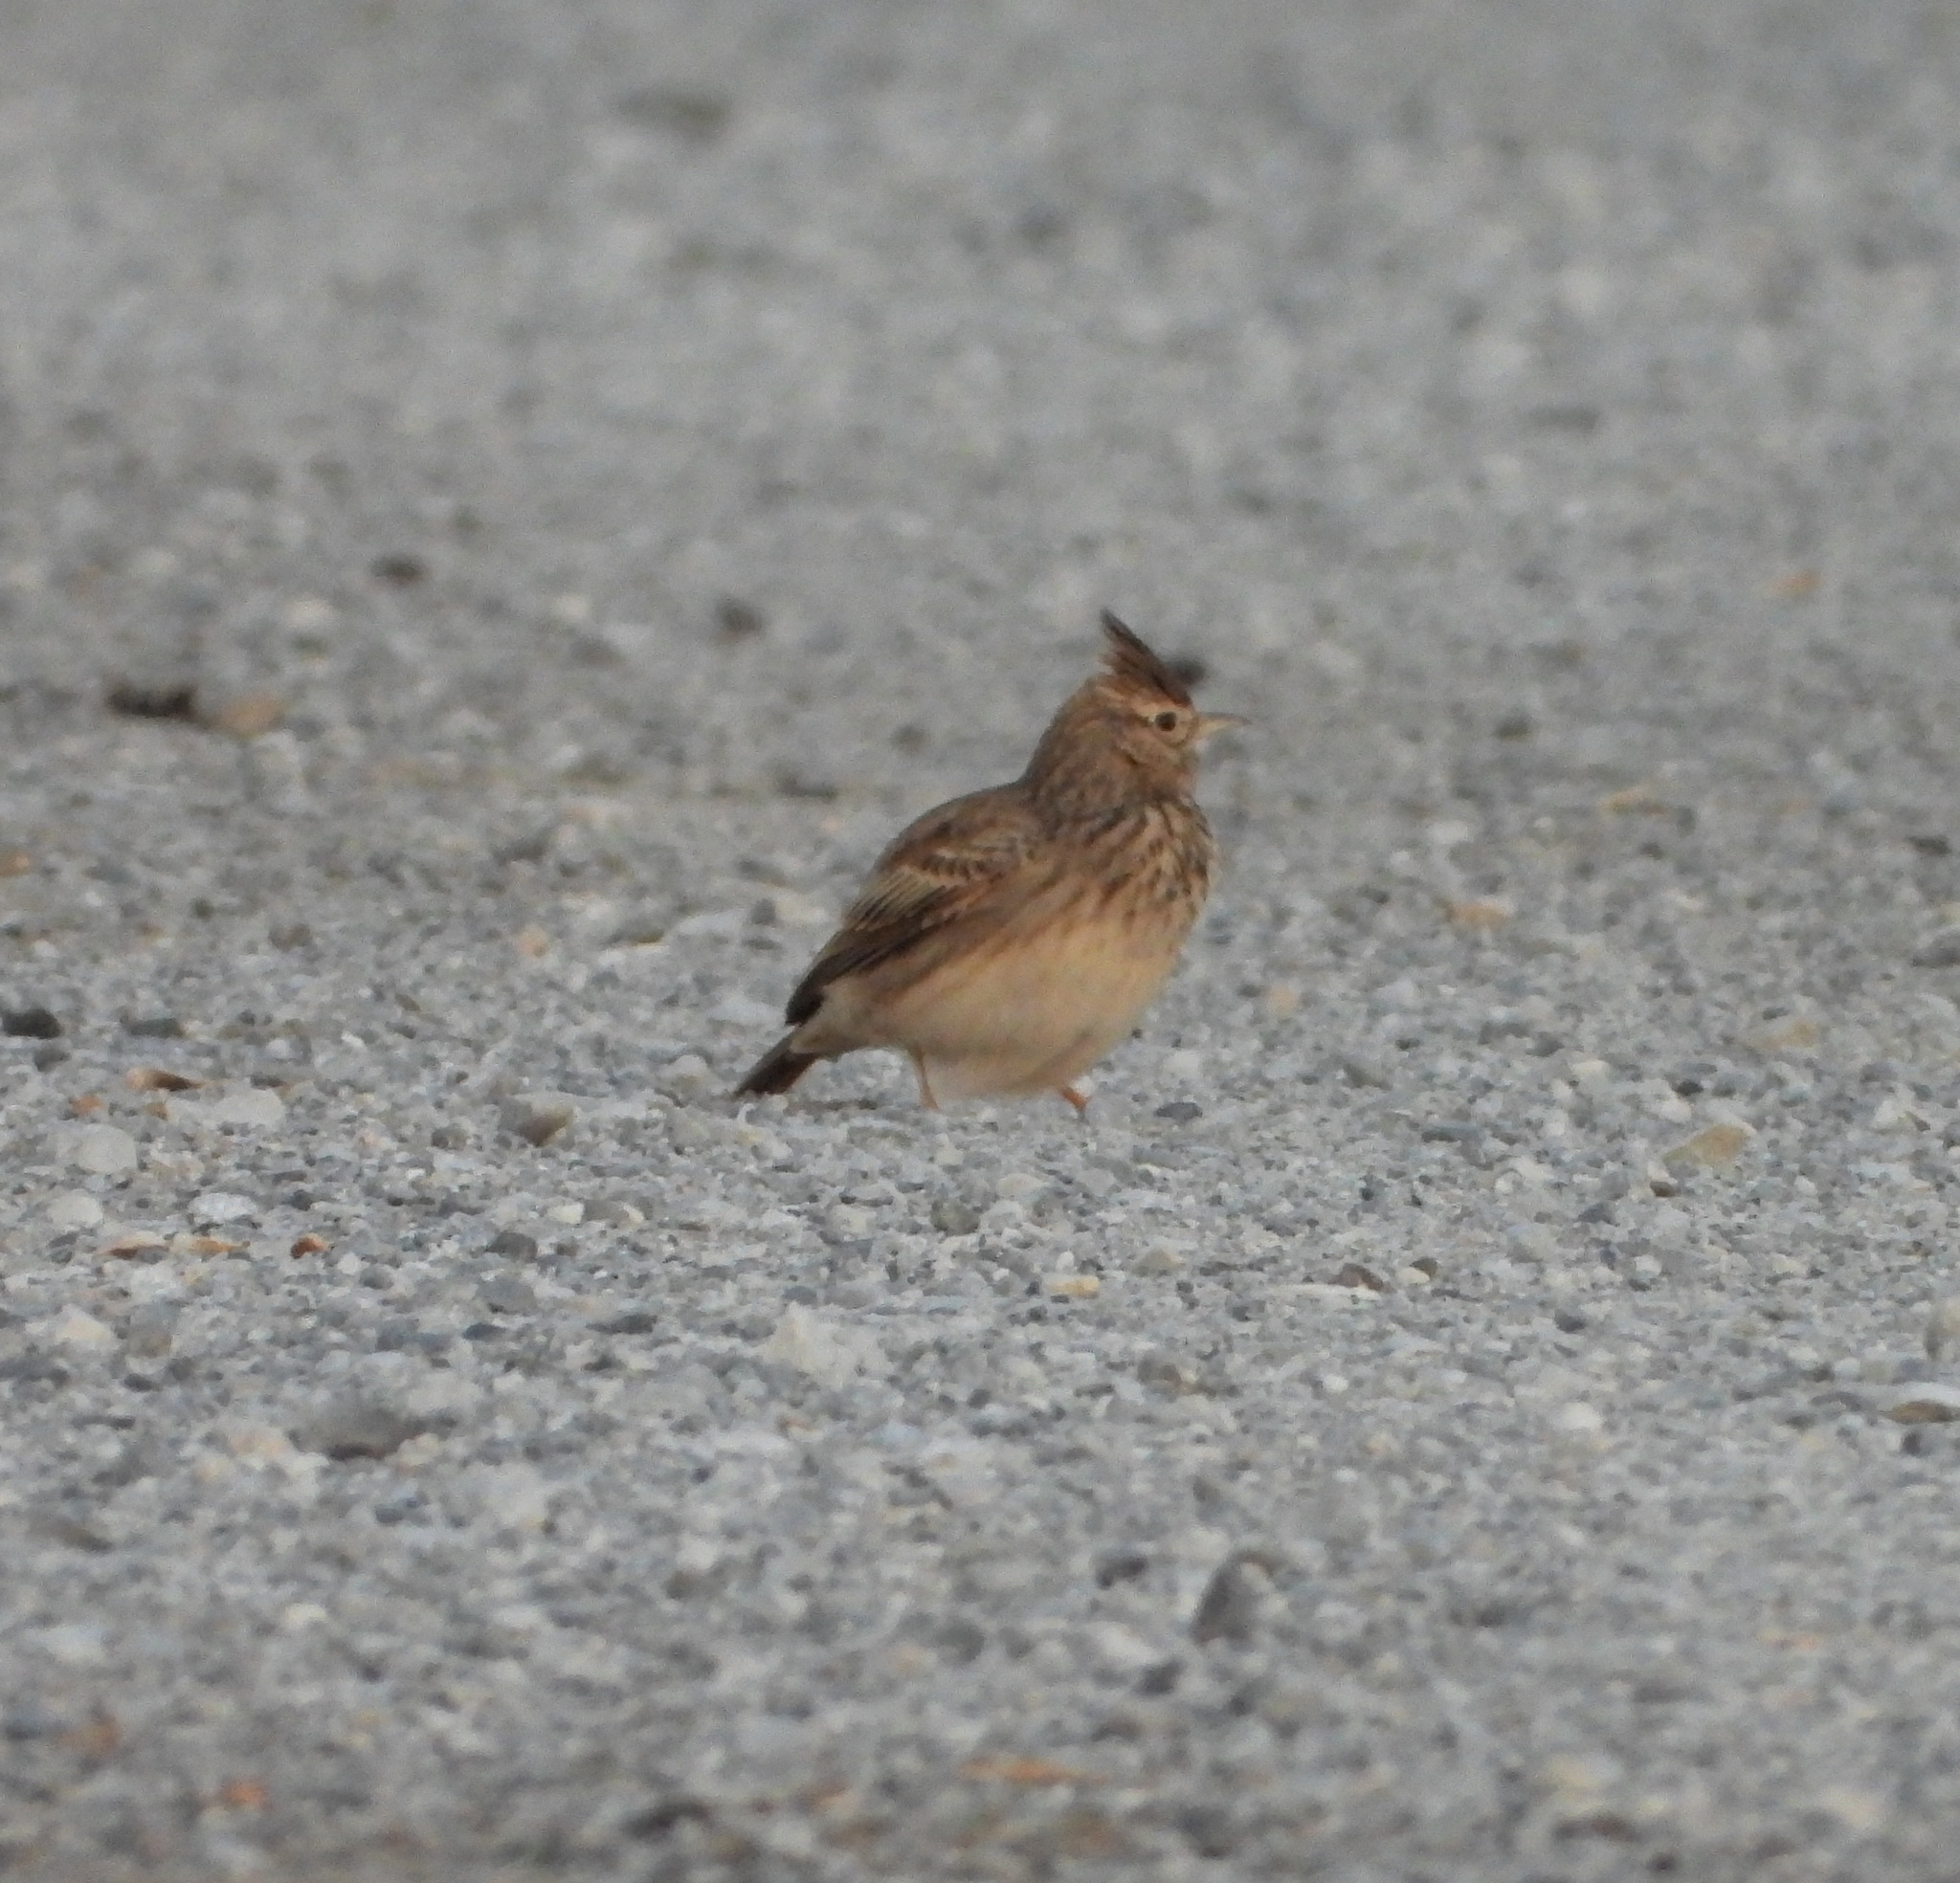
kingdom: Animalia
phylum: Chordata
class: Aves
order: Passeriformes
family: Alaudidae
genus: Galerida
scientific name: Galerida cristata
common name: Crested lark
